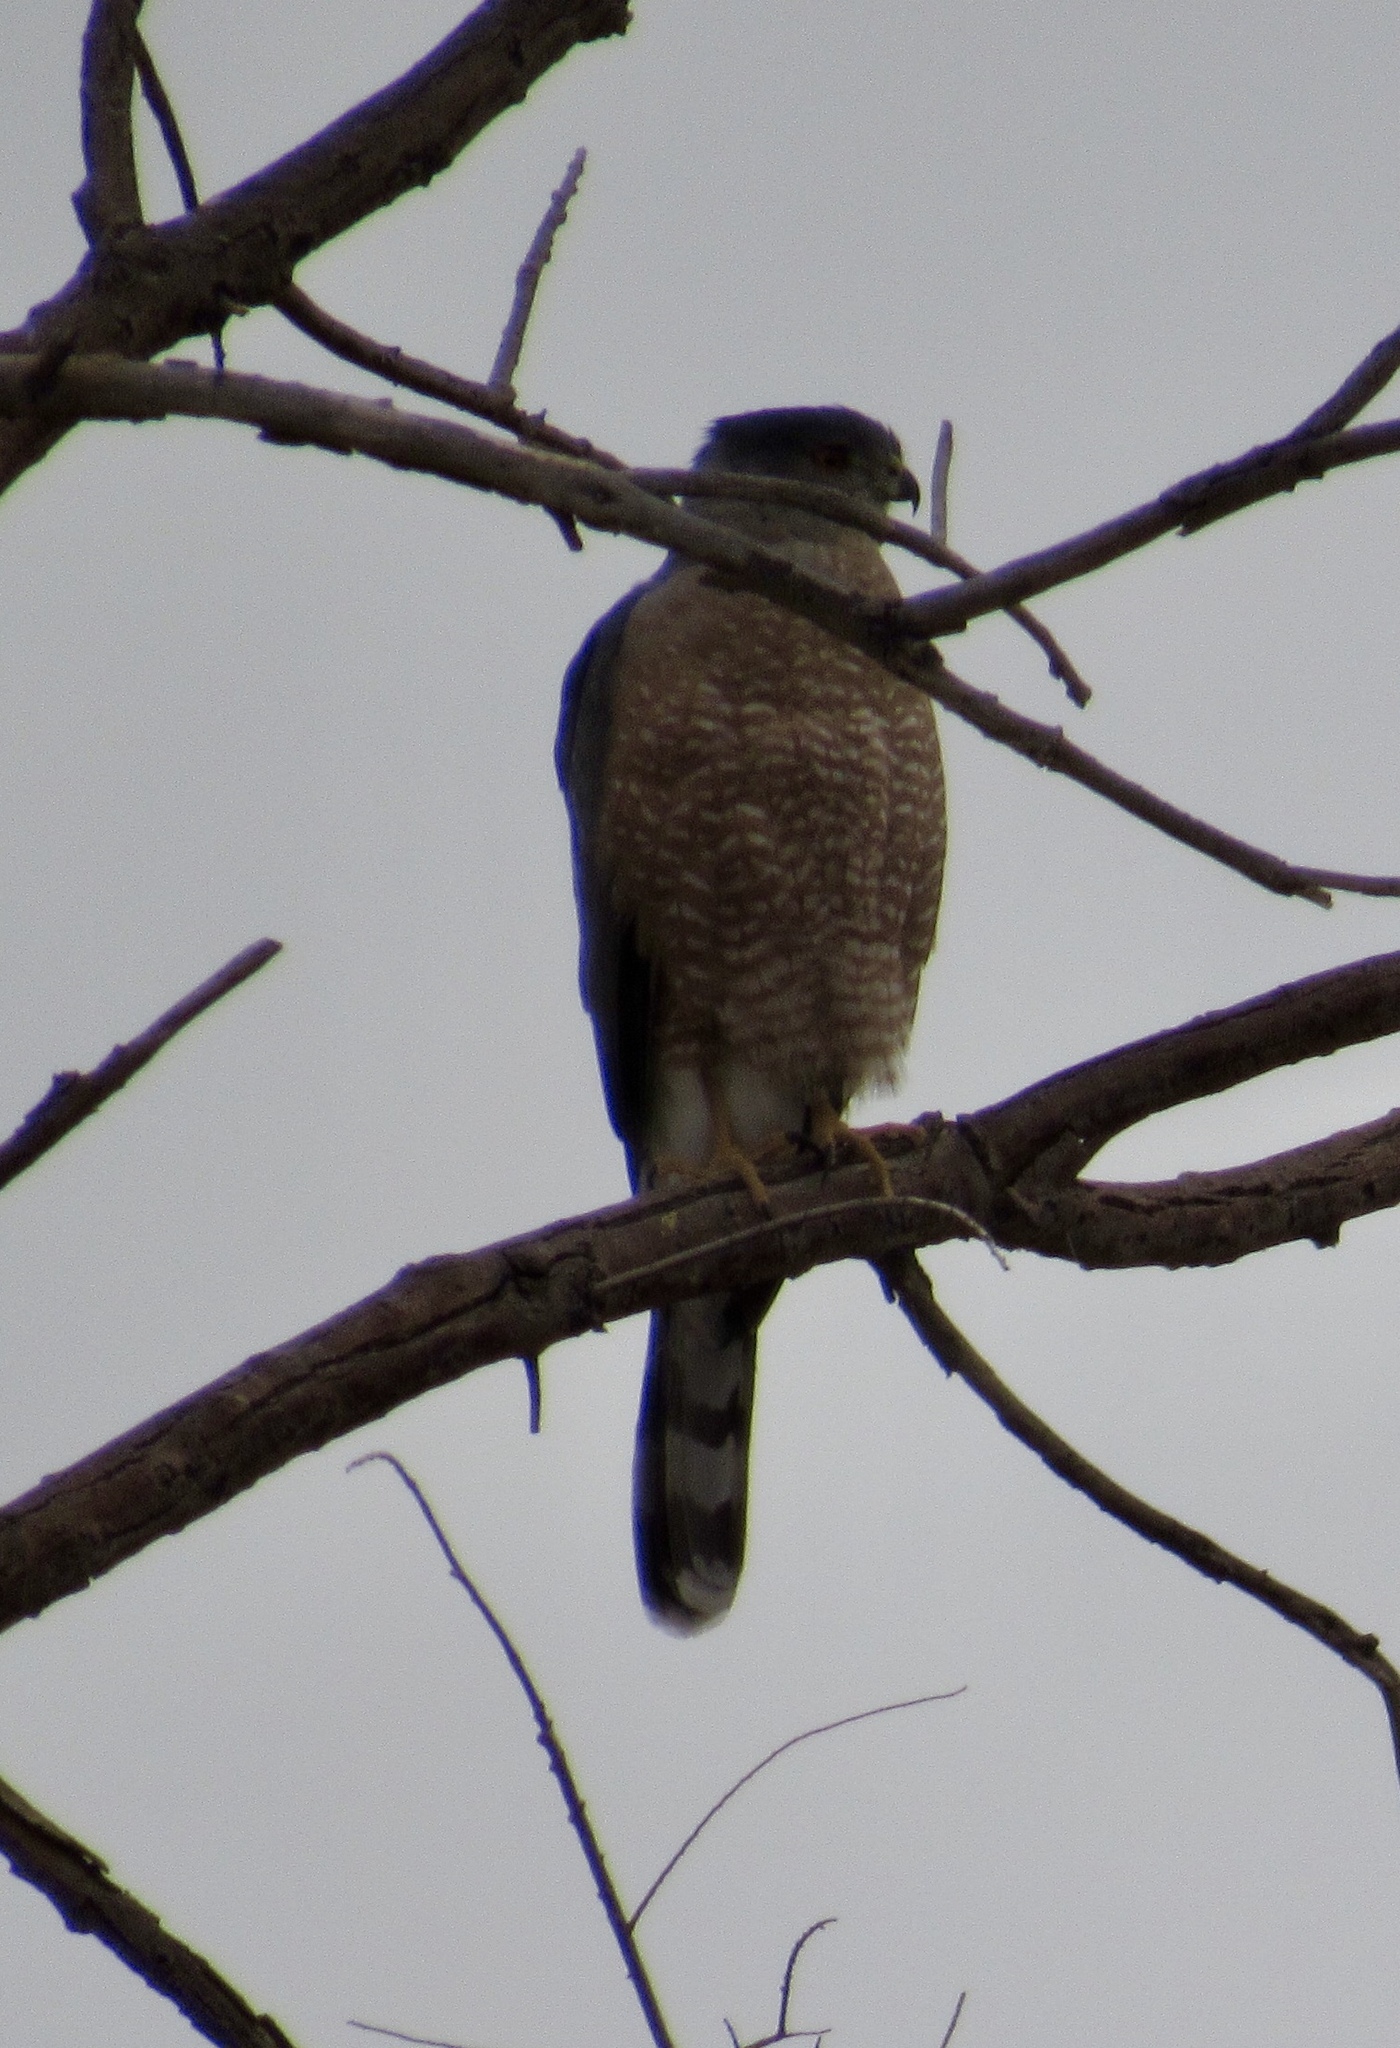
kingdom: Animalia
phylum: Chordata
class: Aves
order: Accipitriformes
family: Accipitridae
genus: Accipiter
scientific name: Accipiter cooperii
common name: Cooper's hawk
